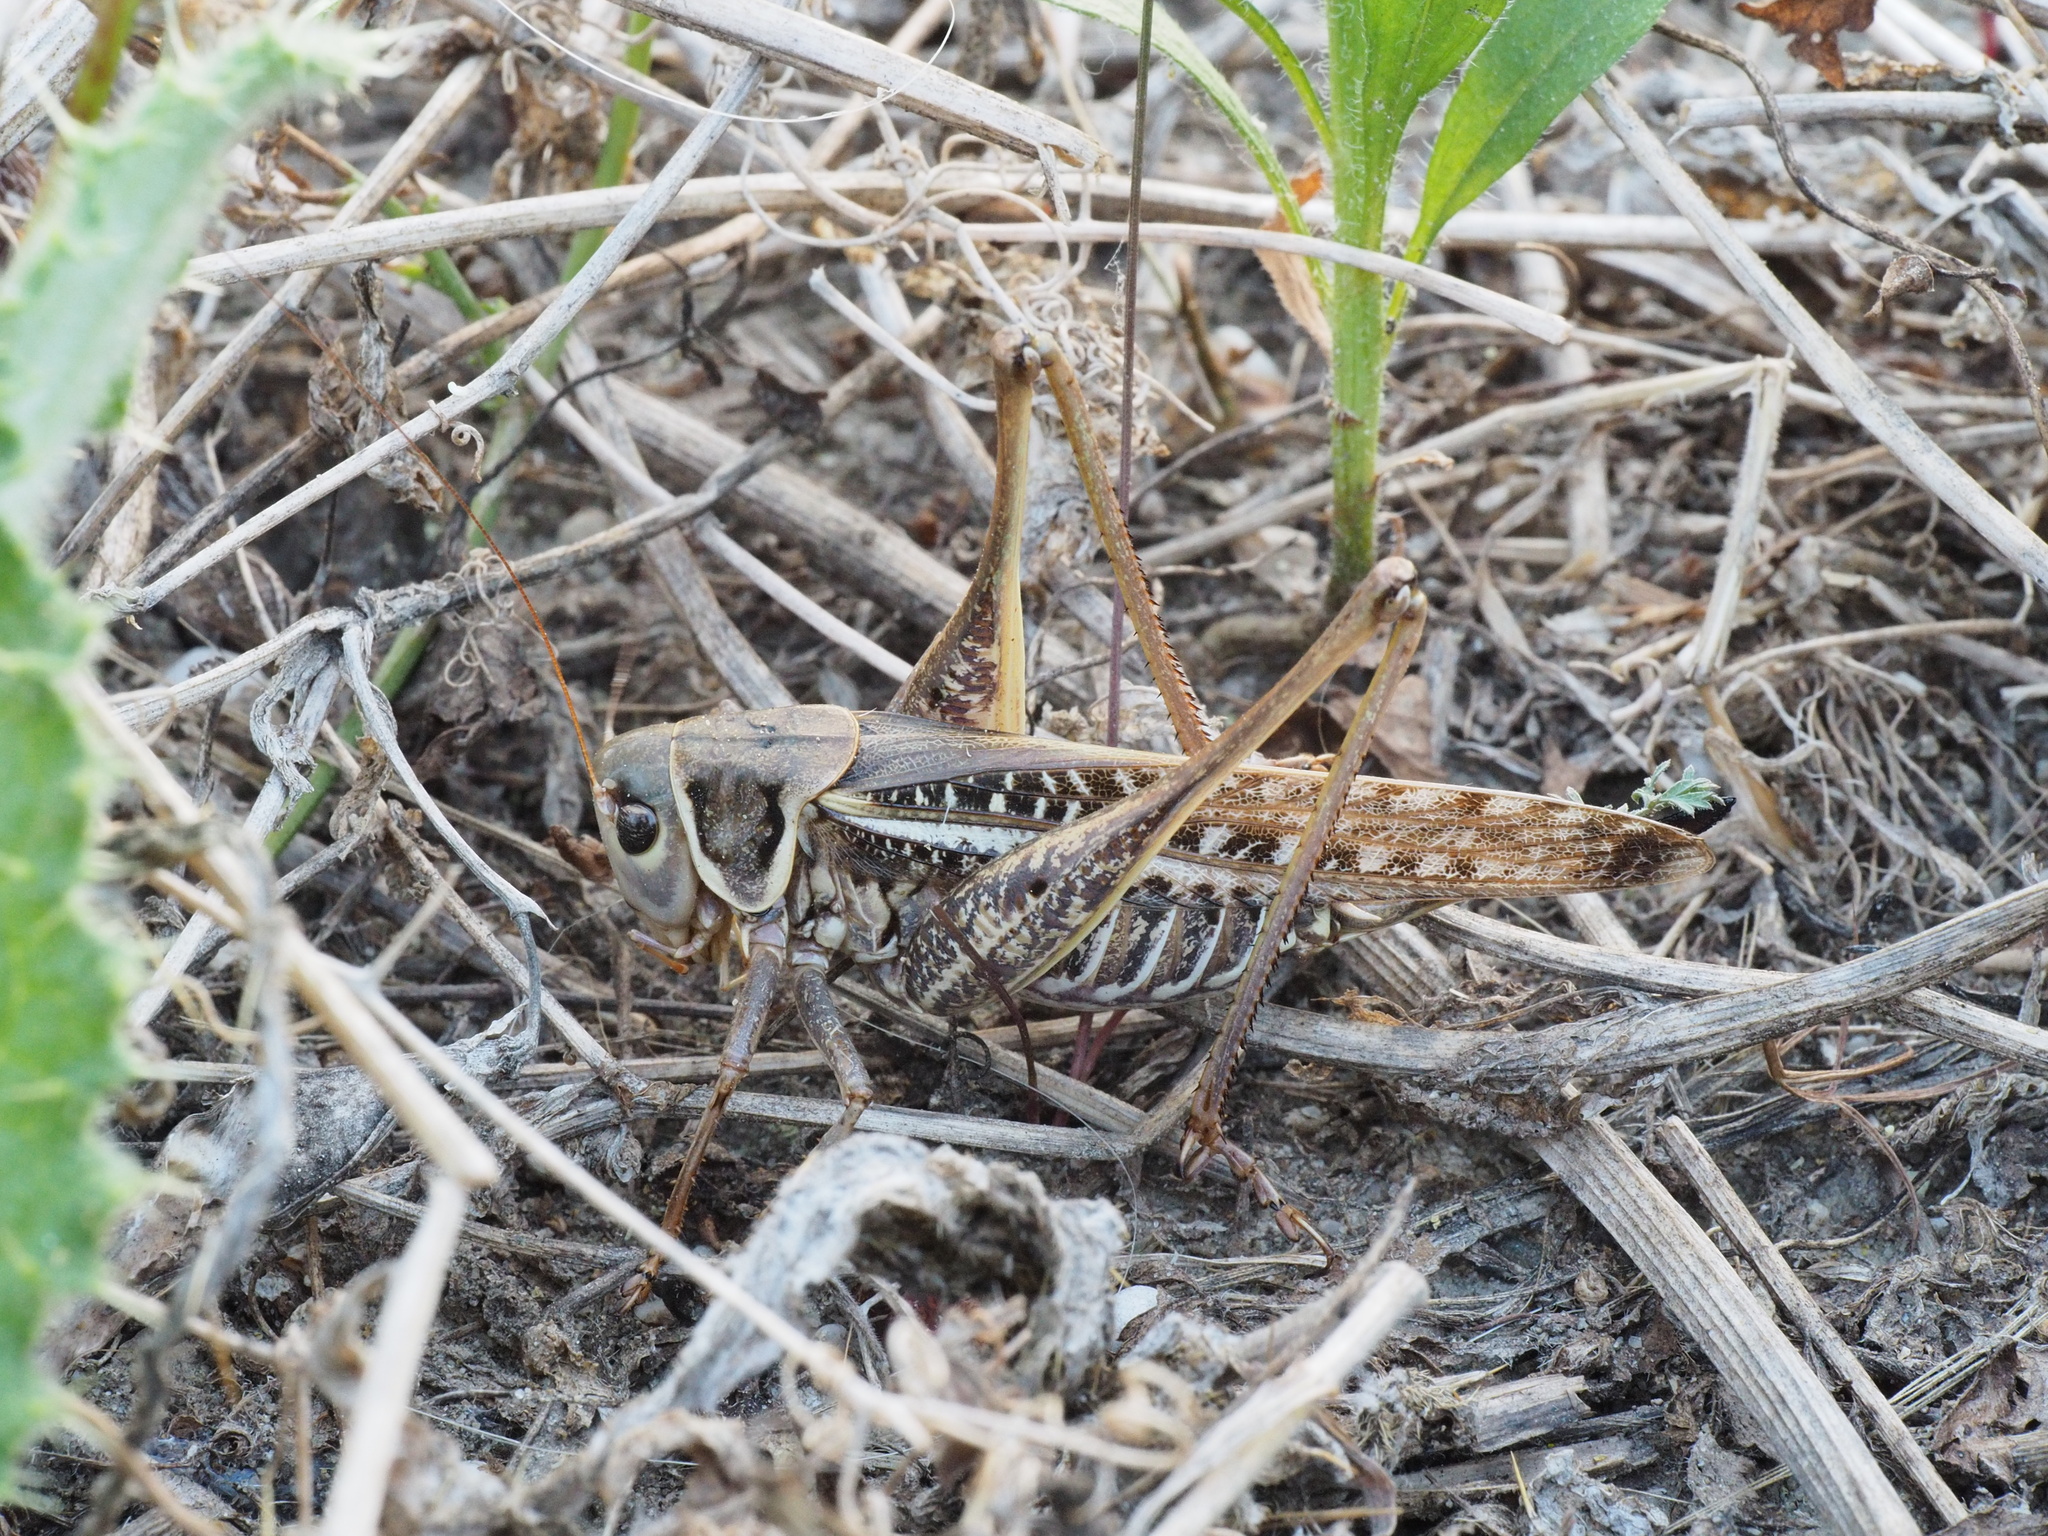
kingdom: Animalia
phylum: Arthropoda
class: Insecta
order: Orthoptera
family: Tettigoniidae
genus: Decticus
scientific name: Decticus albifrons
